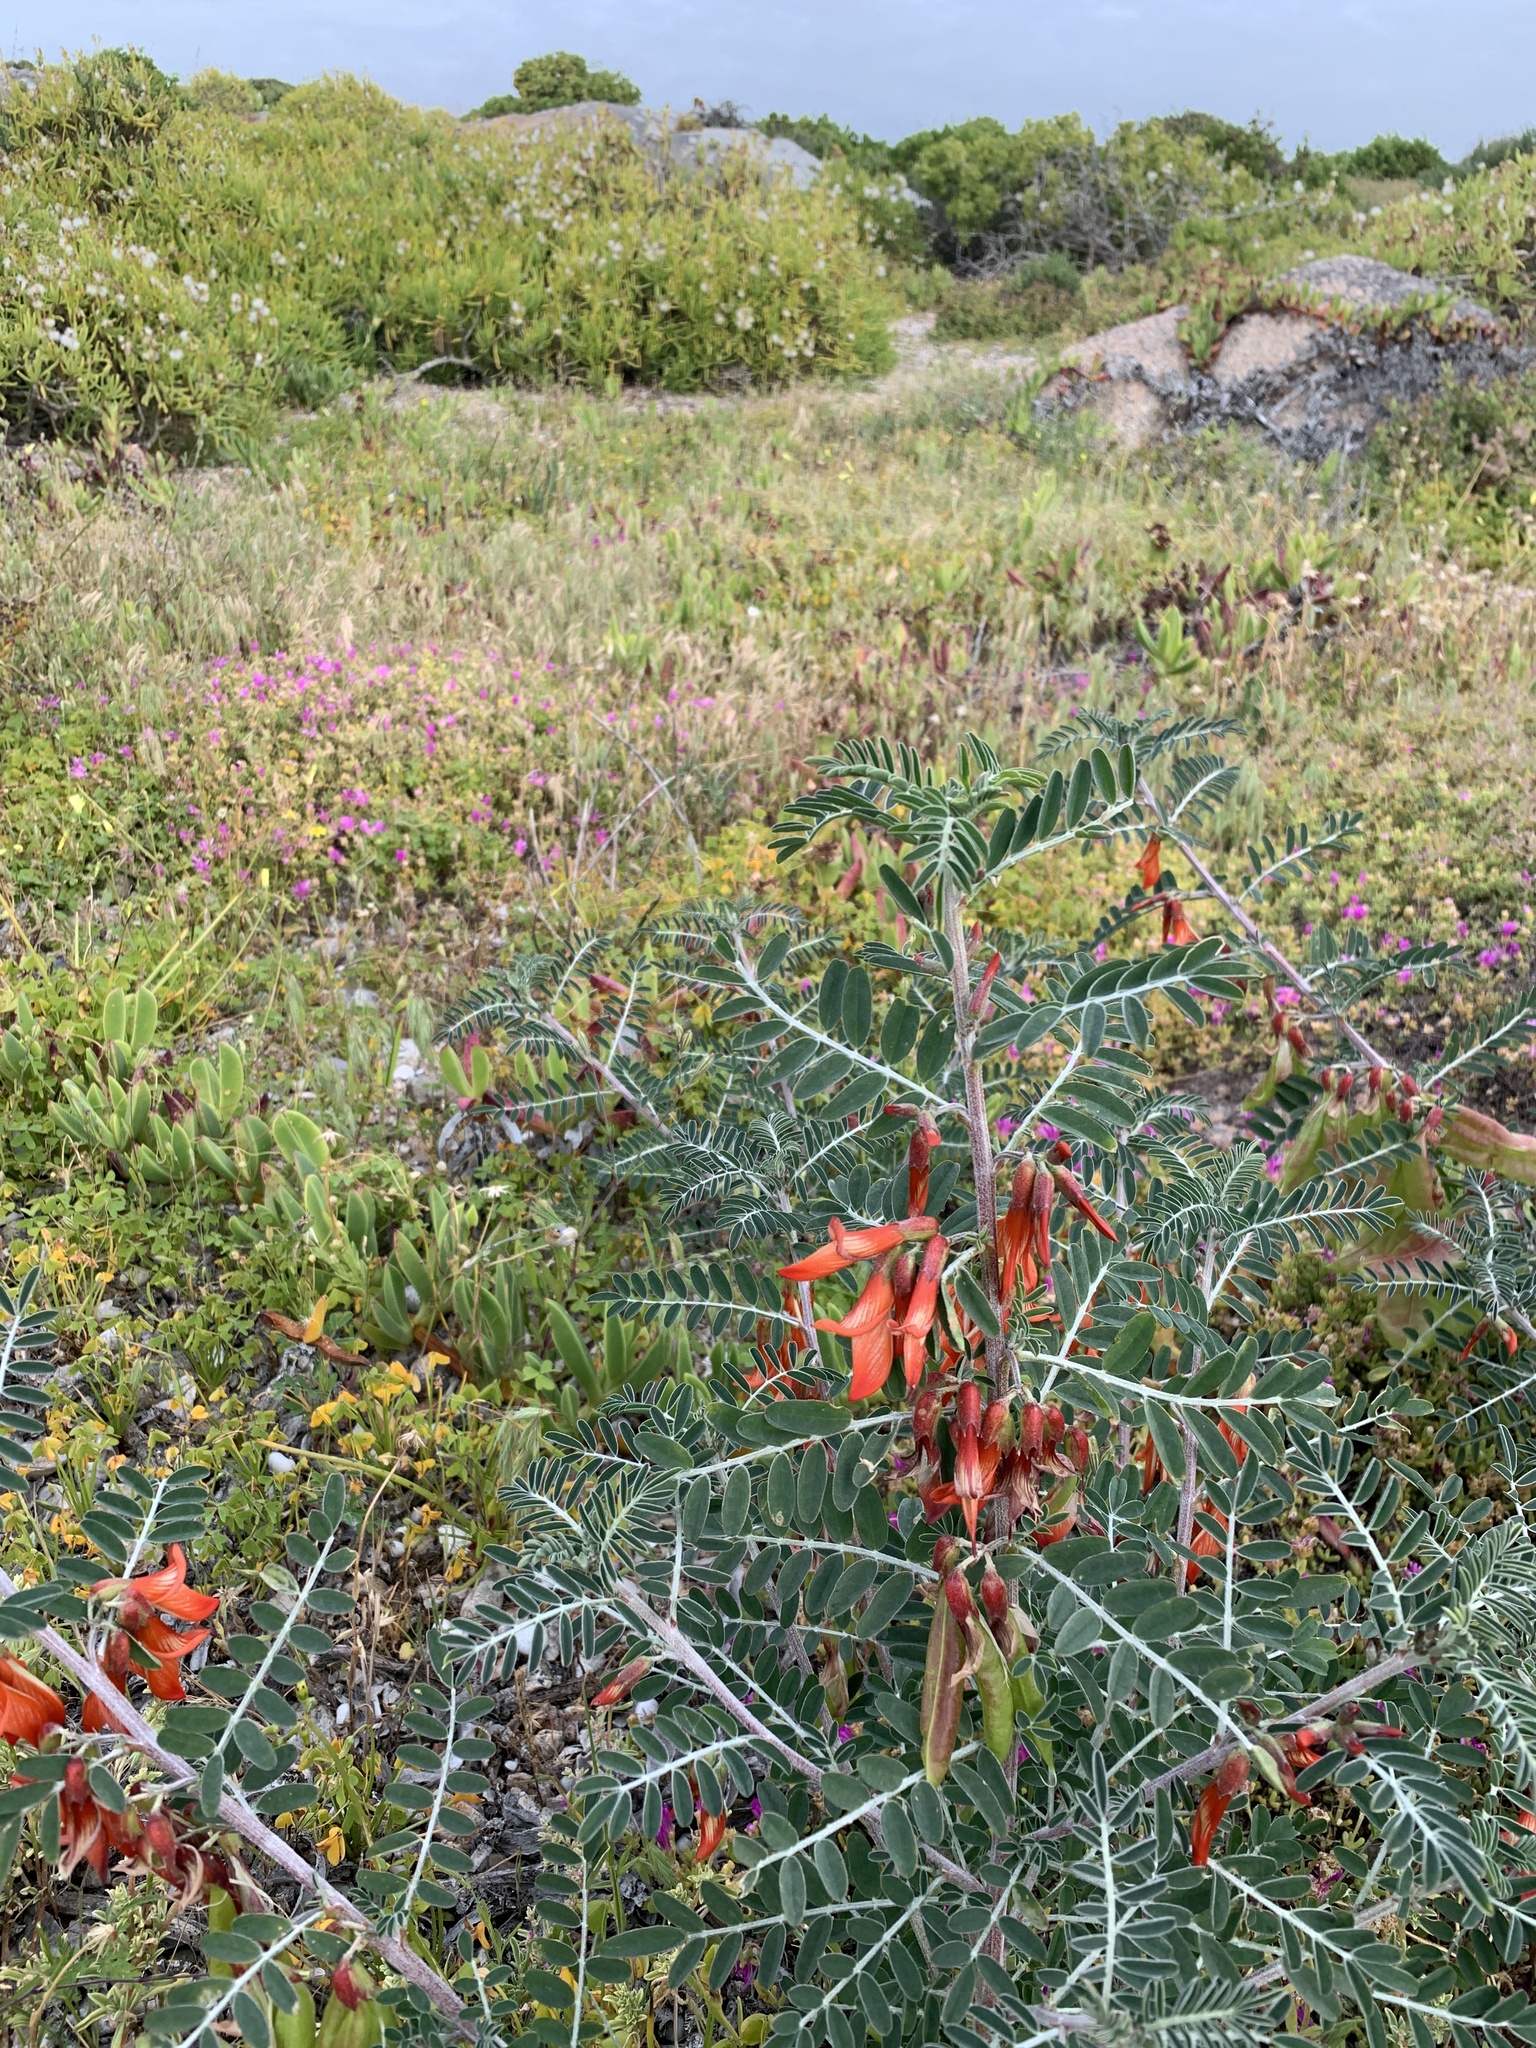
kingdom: Plantae
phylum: Tracheophyta
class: Magnoliopsida
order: Fabales
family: Fabaceae
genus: Lessertia
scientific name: Lessertia frutescens
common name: Balloon-pea
